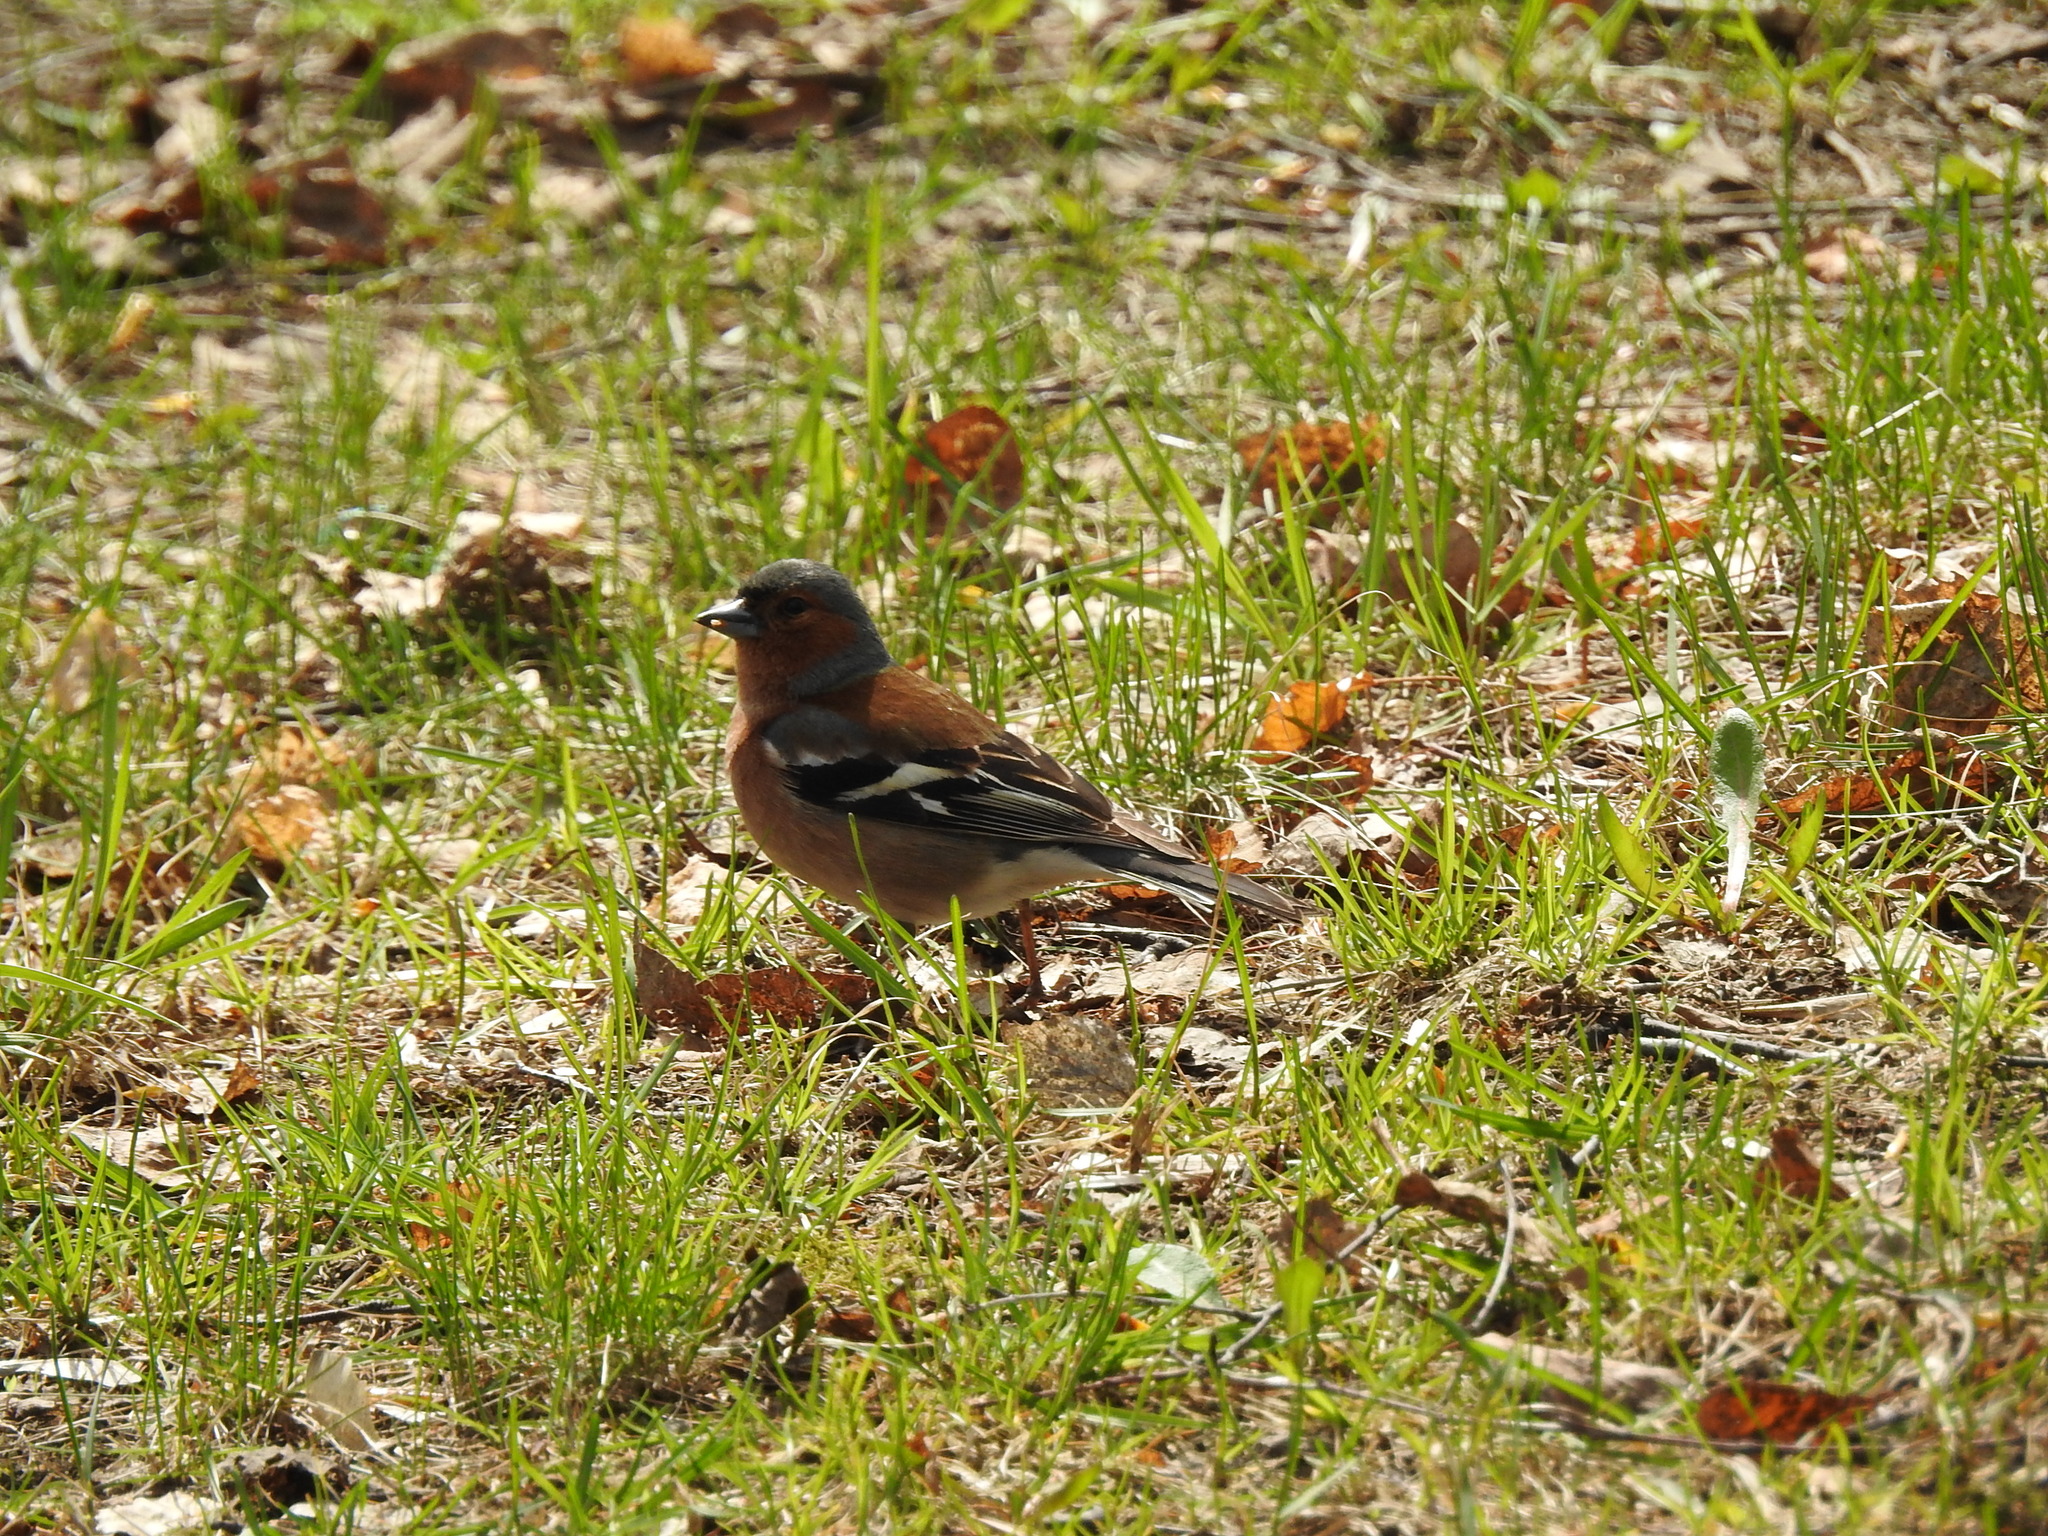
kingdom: Animalia
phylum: Chordata
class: Aves
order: Passeriformes
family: Fringillidae
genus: Fringilla
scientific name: Fringilla coelebs
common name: Common chaffinch
